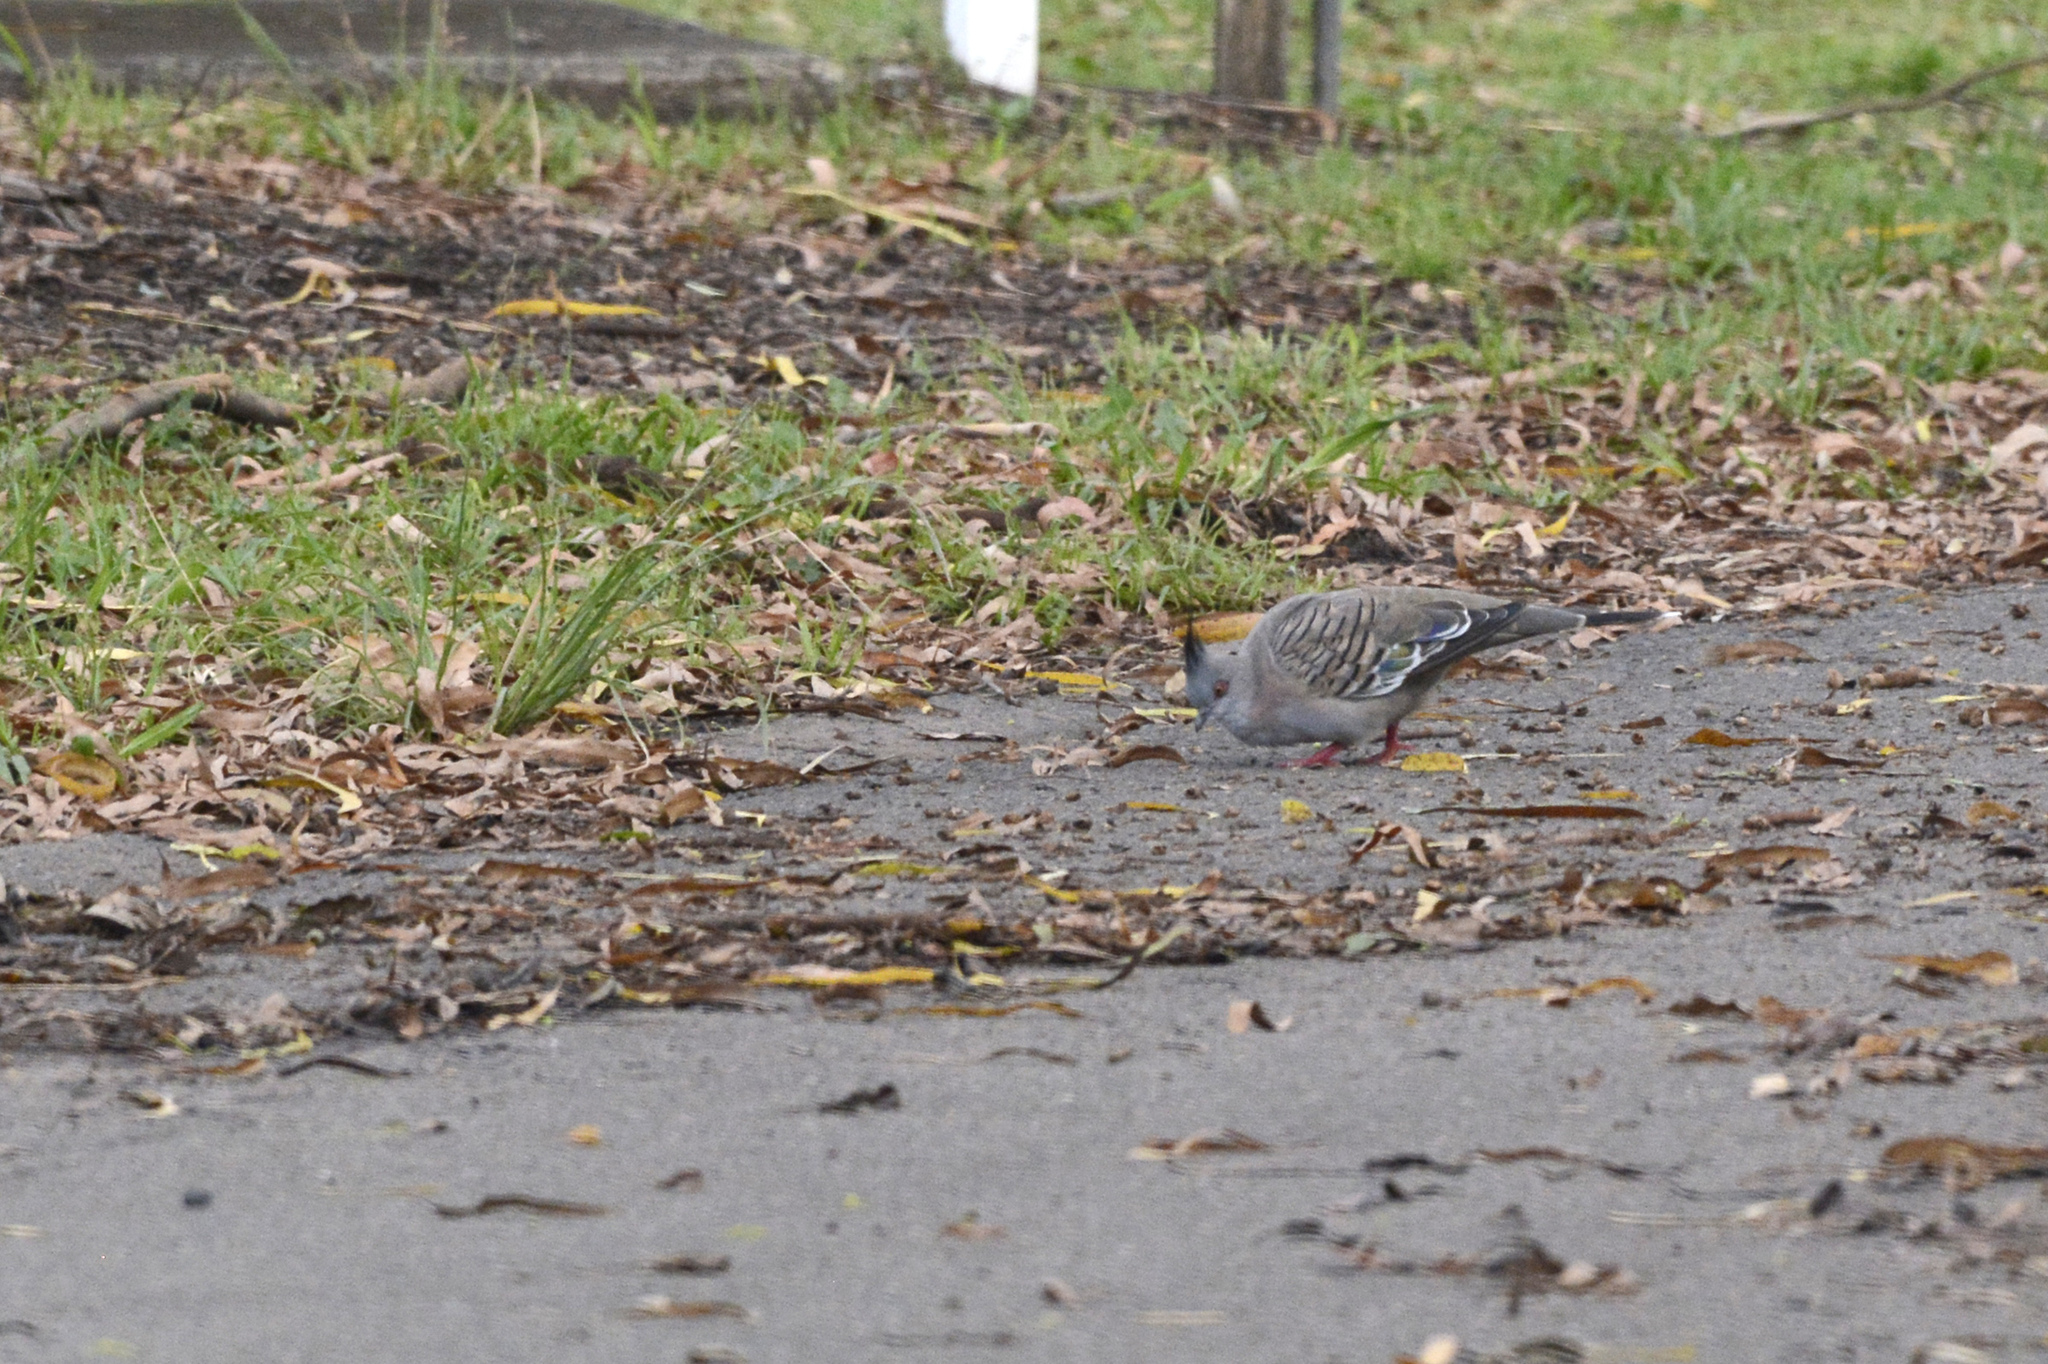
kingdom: Animalia
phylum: Chordata
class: Aves
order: Columbiformes
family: Columbidae
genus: Ocyphaps
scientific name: Ocyphaps lophotes
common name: Crested pigeon
